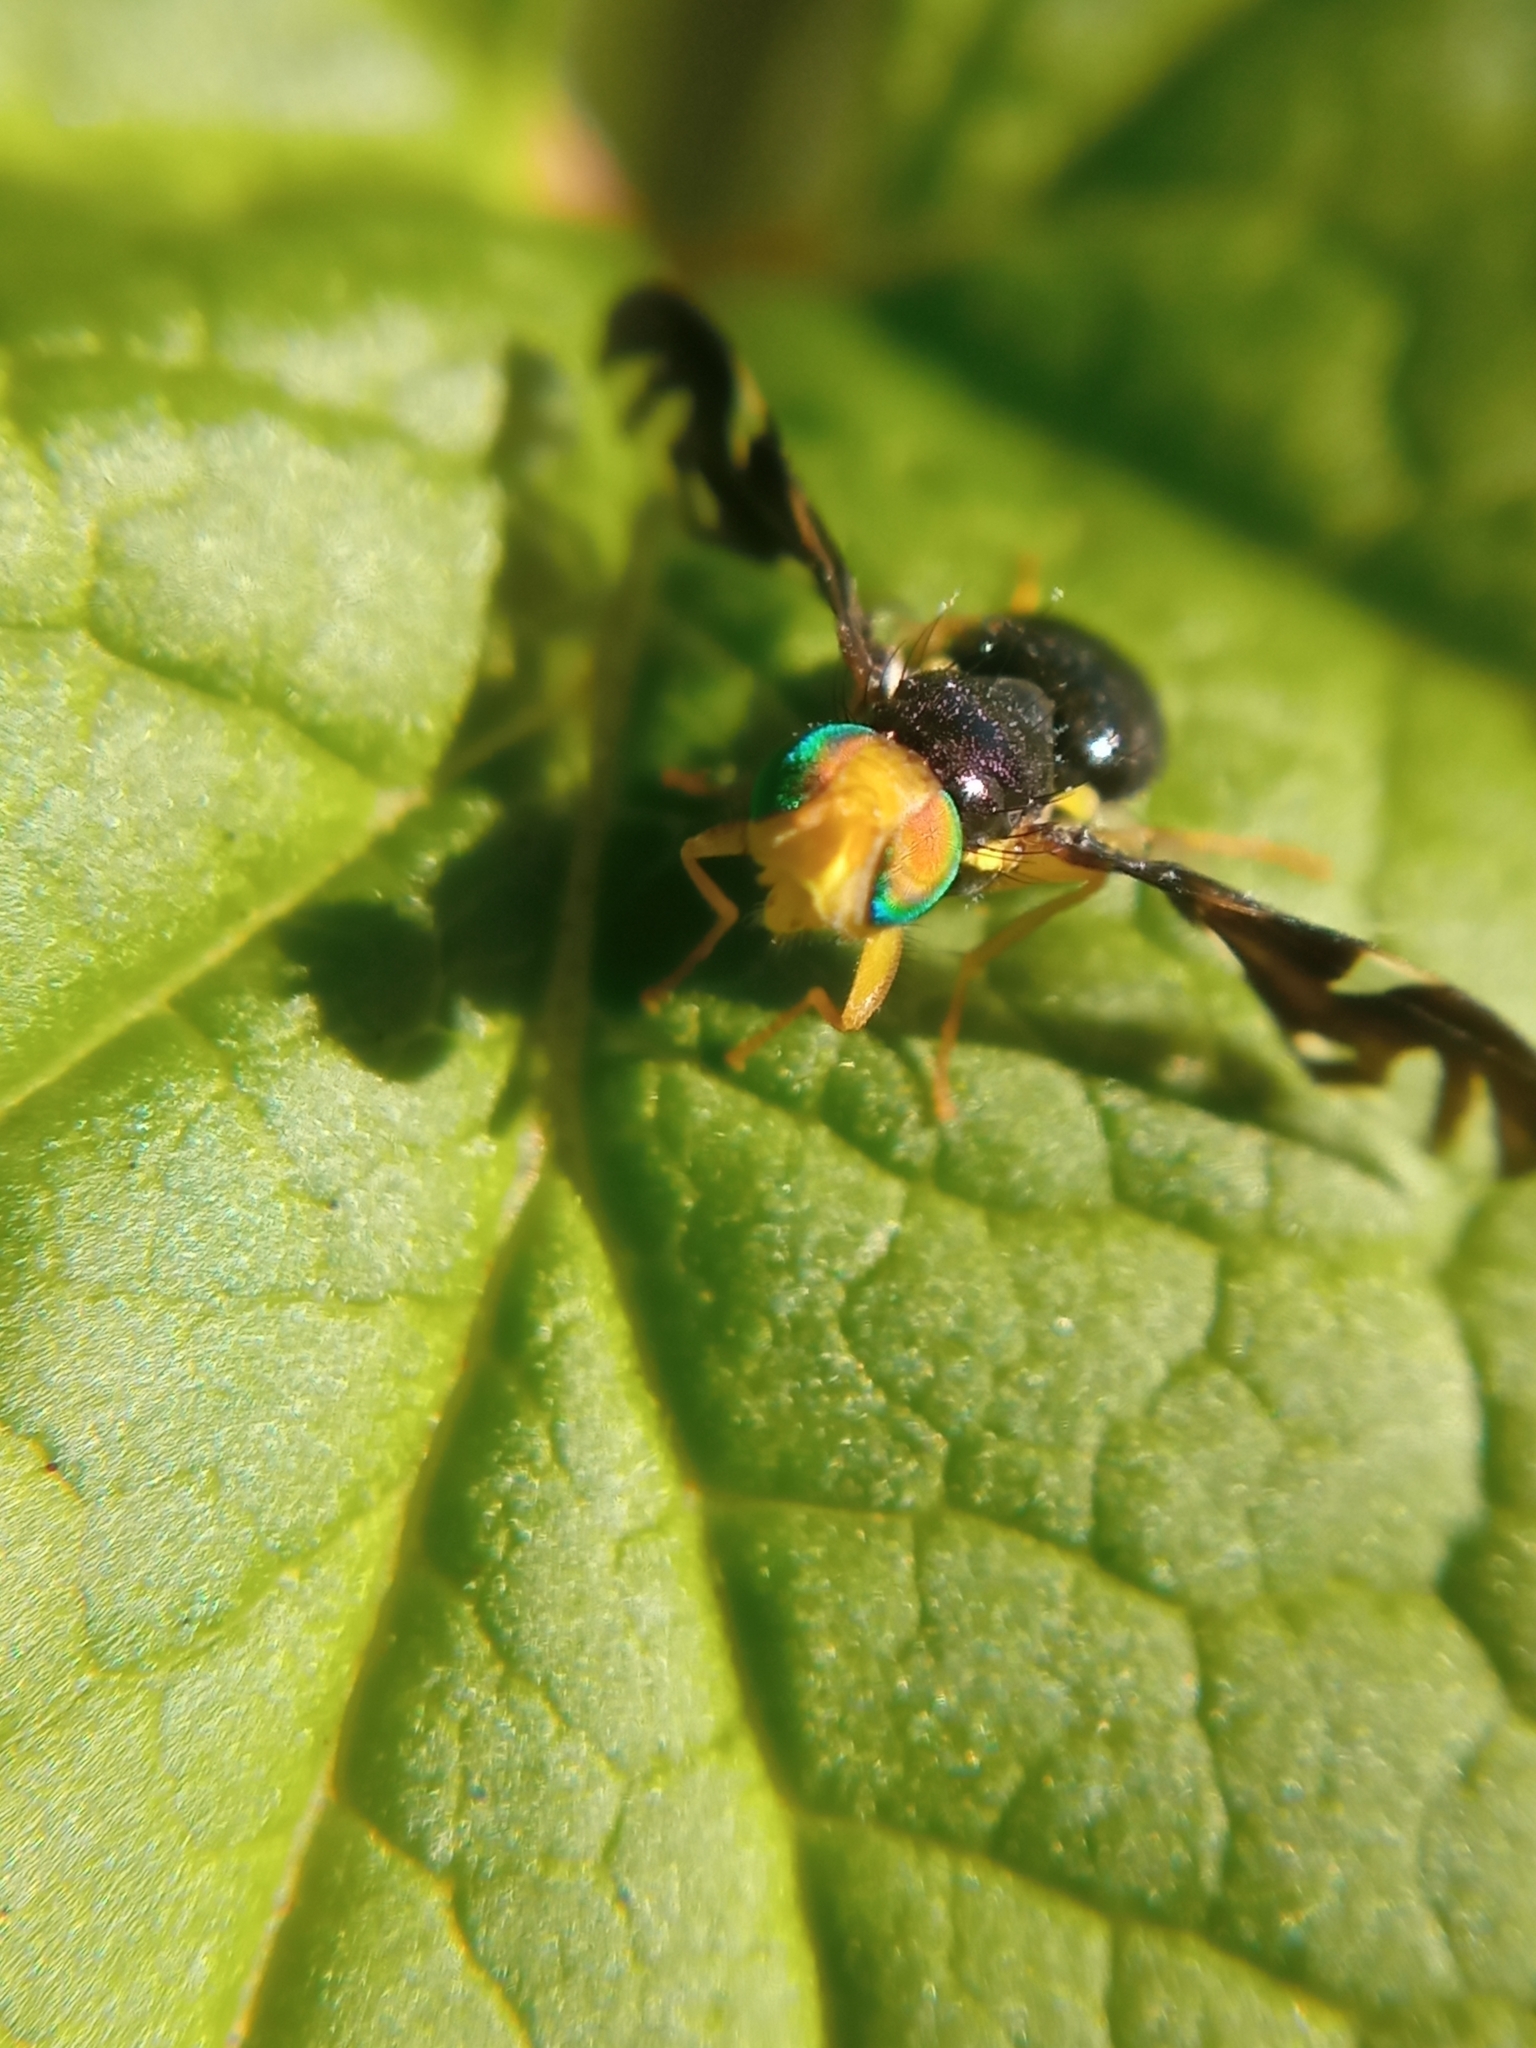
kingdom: Animalia
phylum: Arthropoda
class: Insecta
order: Diptera
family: Tephritidae
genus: Euleia
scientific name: Euleia heraclei
